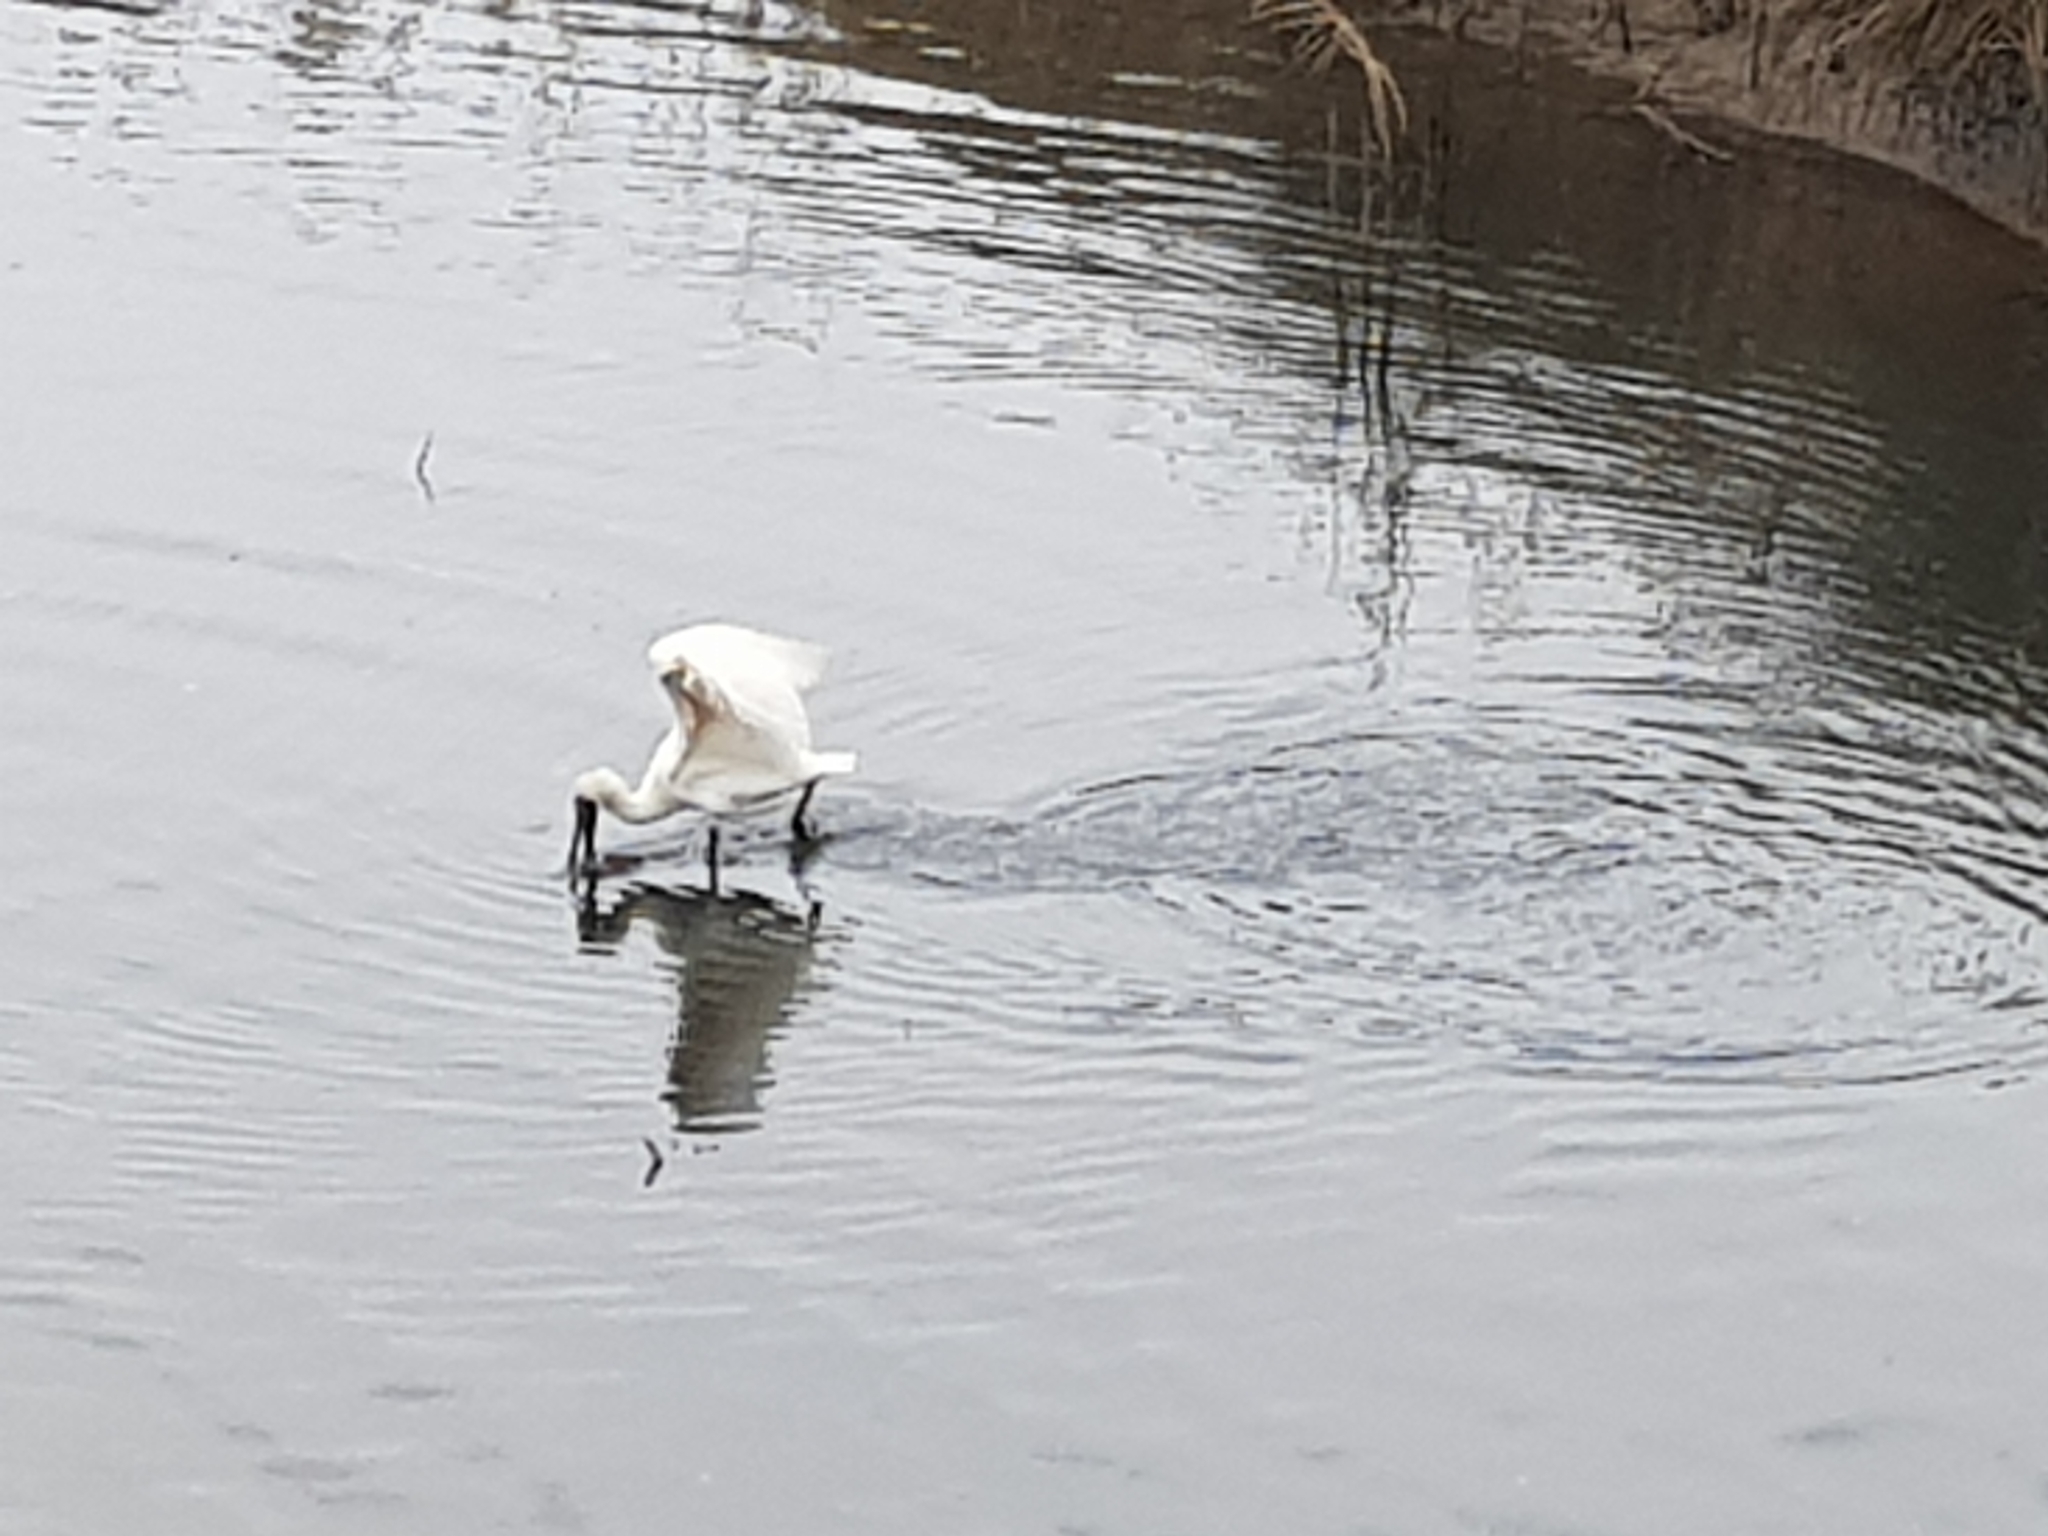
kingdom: Animalia
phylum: Chordata
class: Aves
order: Pelecaniformes
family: Threskiornithidae
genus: Platalea
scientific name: Platalea regia
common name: Royal spoonbill
